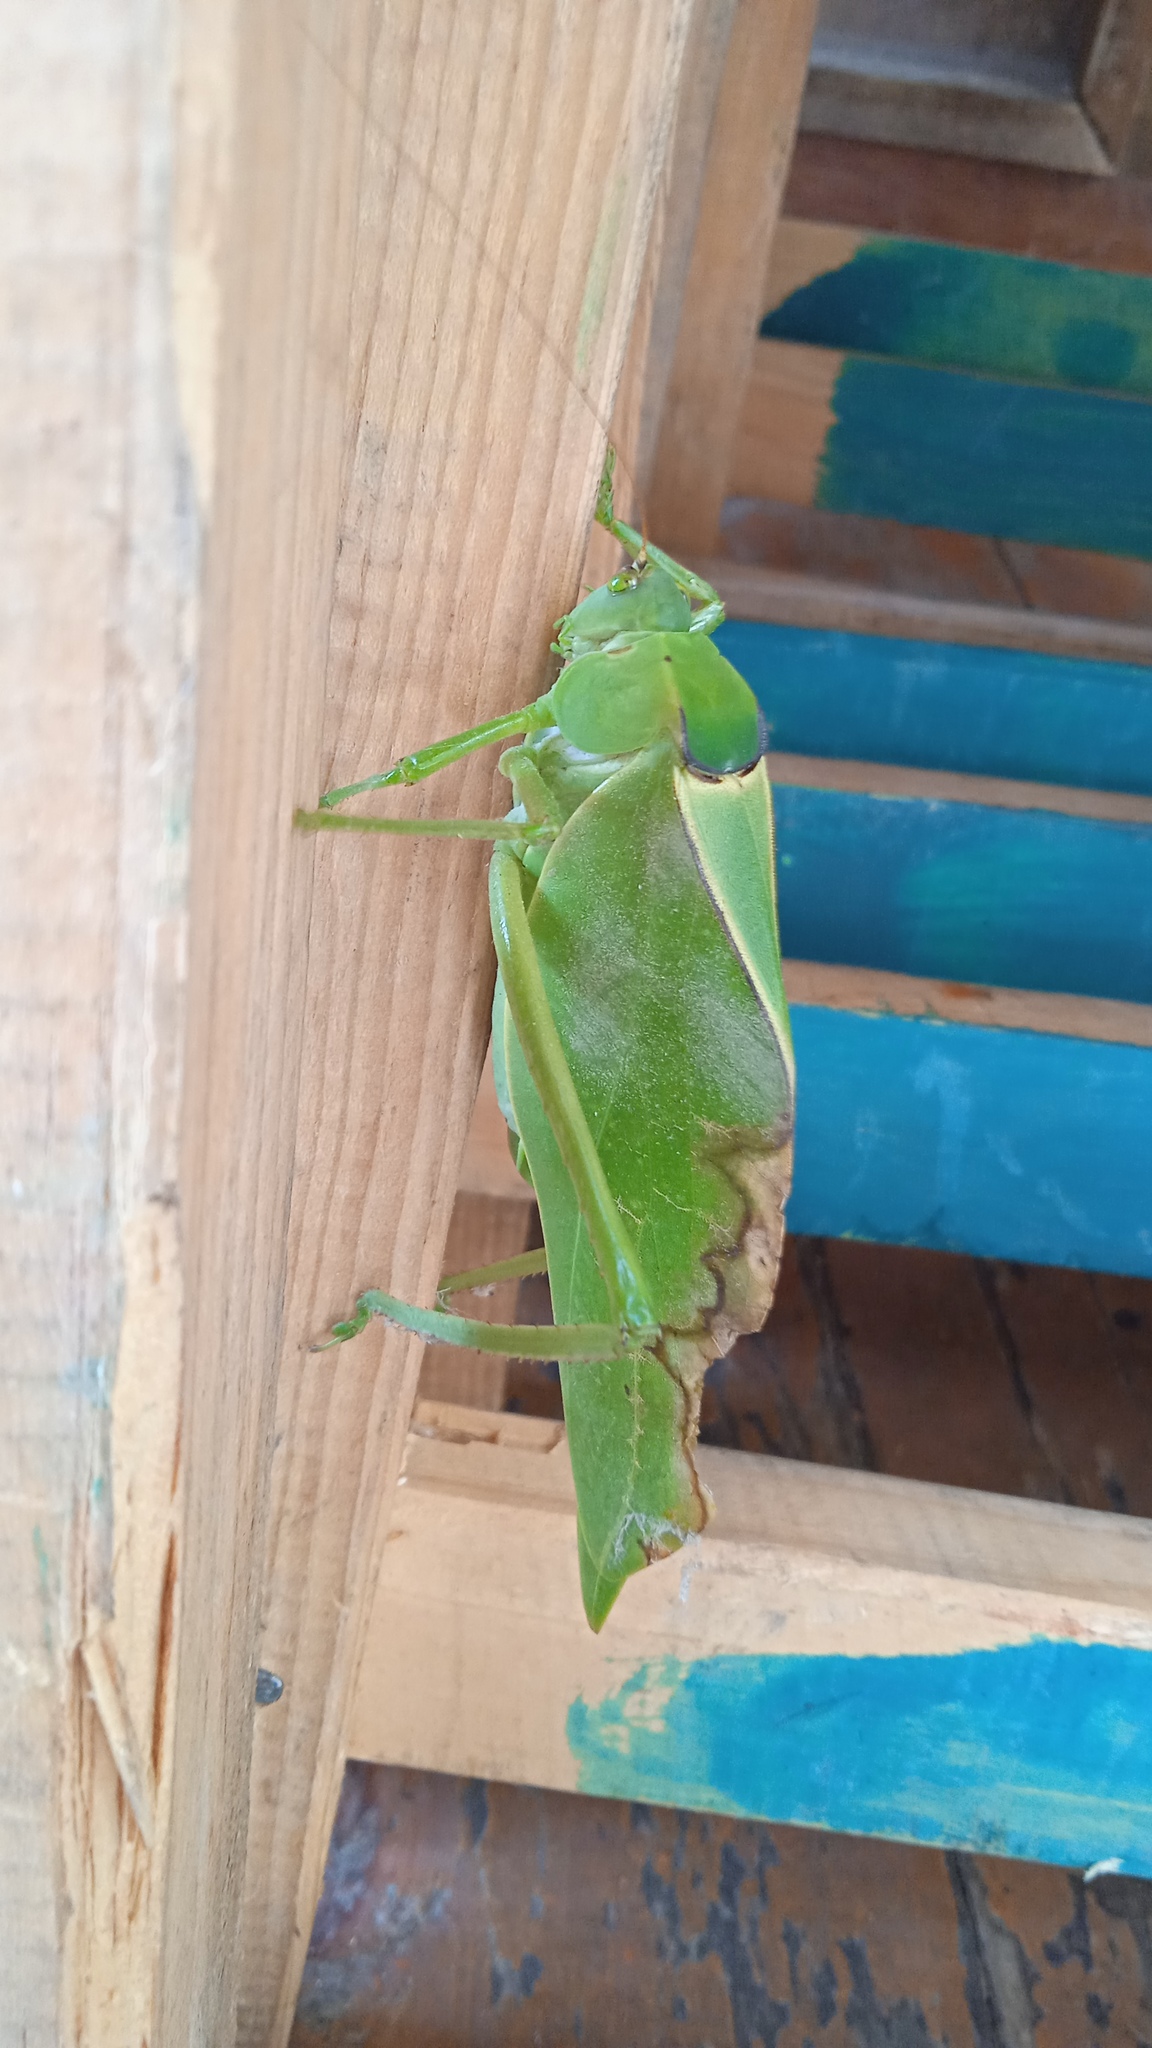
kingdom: Animalia
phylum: Arthropoda
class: Insecta
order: Orthoptera
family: Tettigoniidae
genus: Stilpnochlora
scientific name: Stilpnochlora azteca
